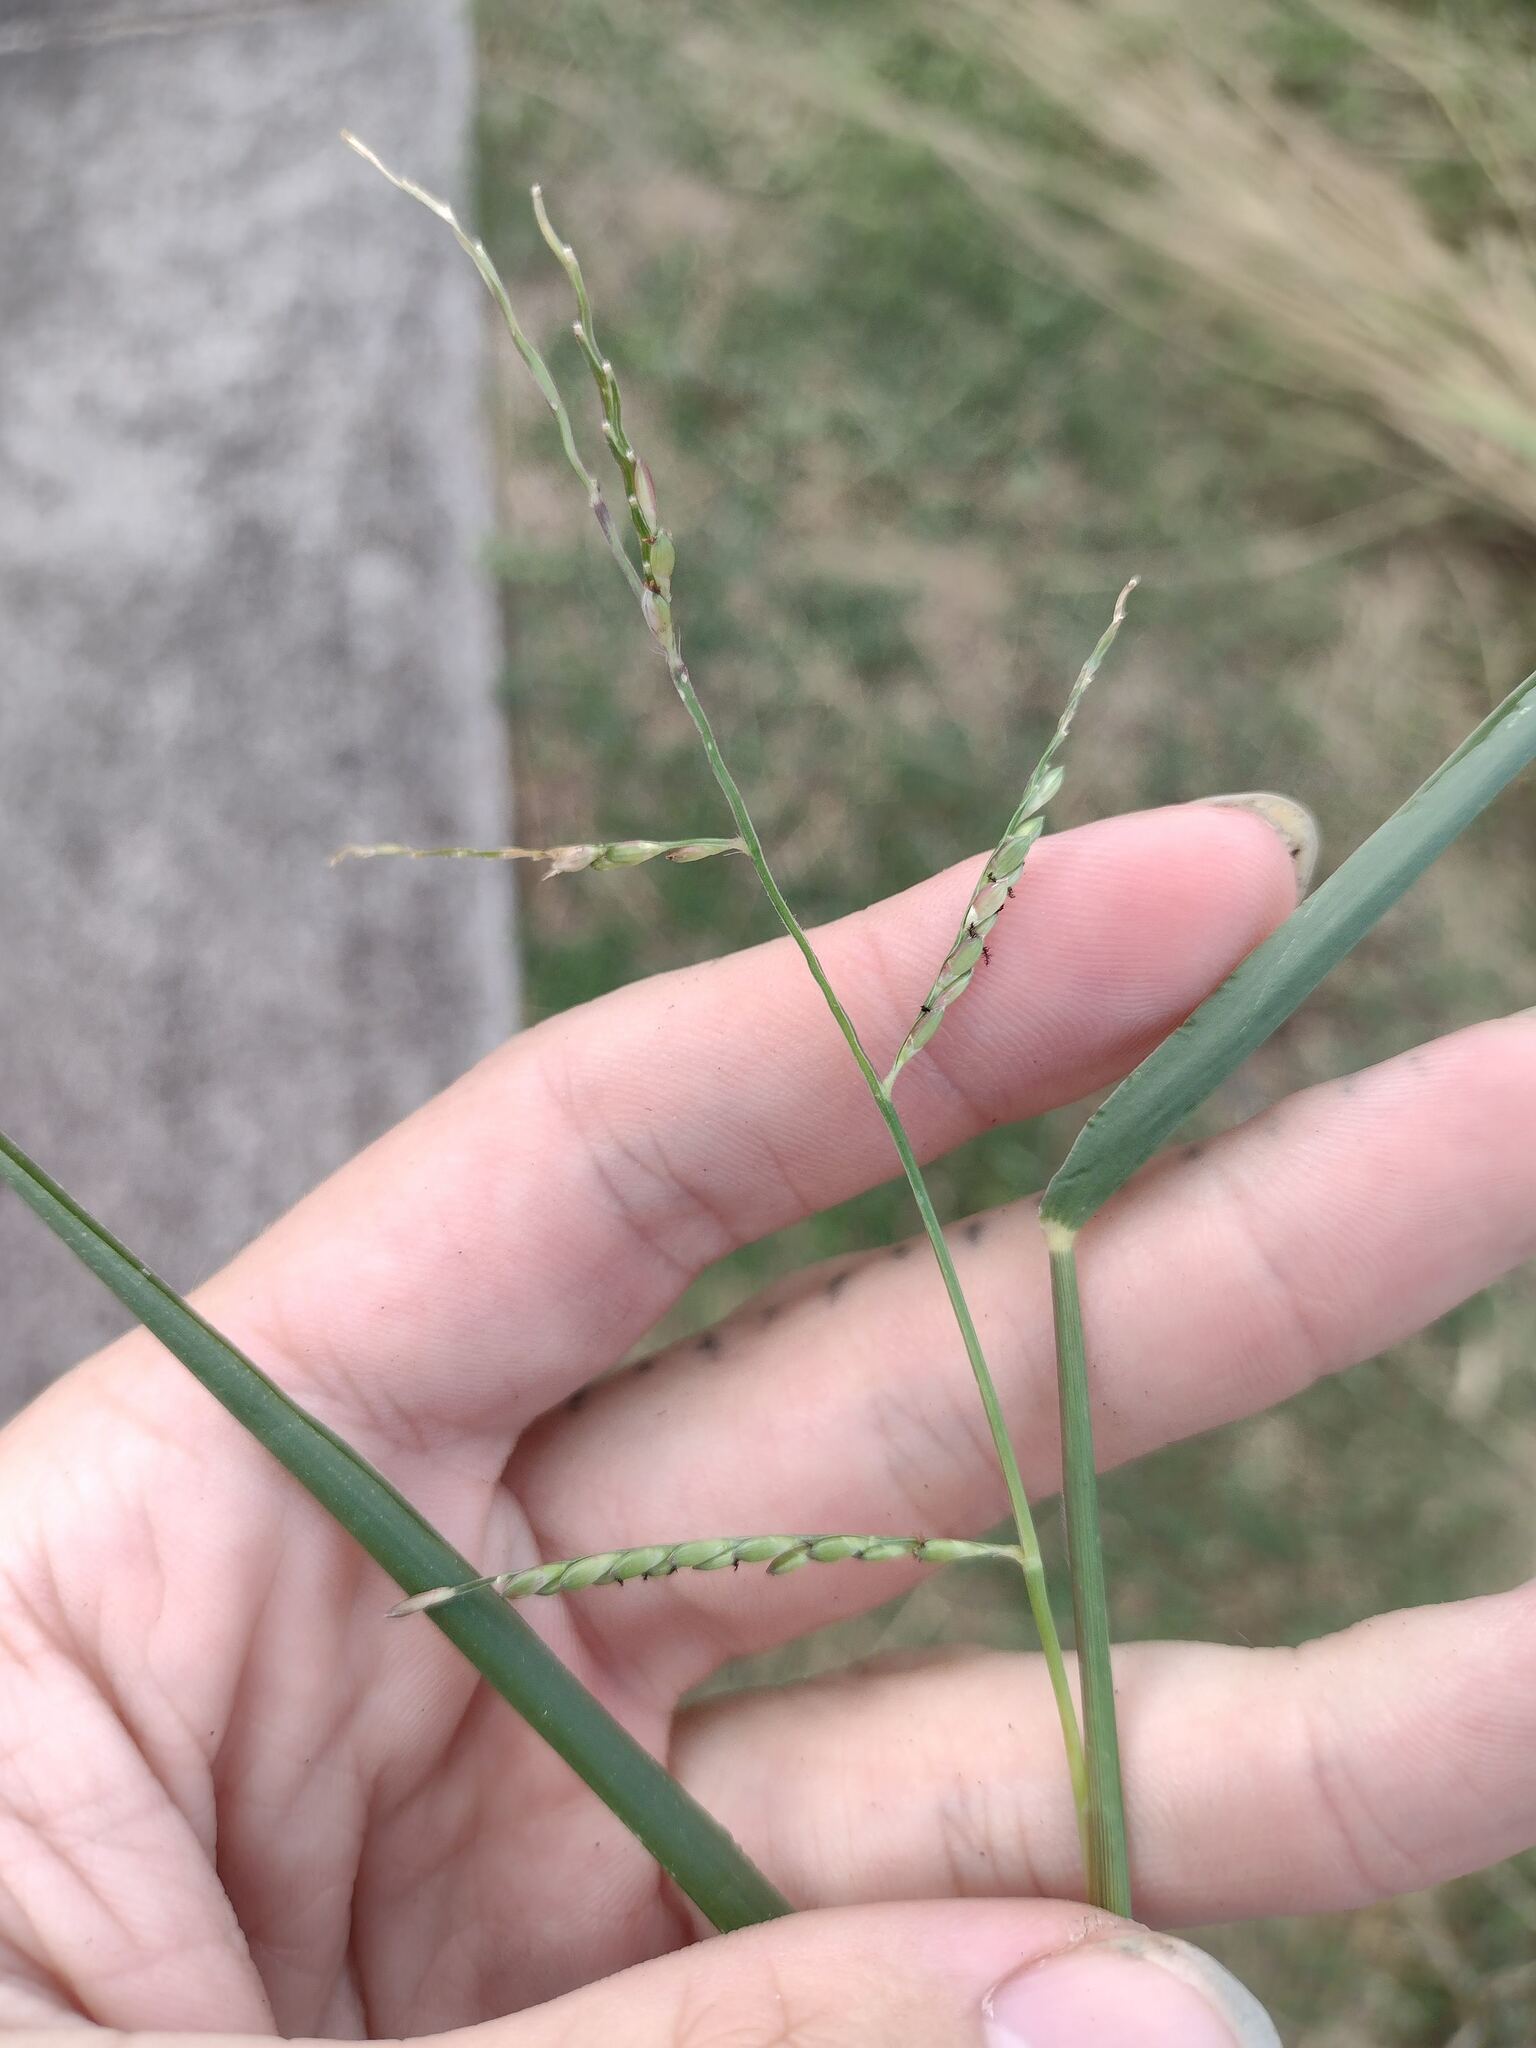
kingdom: Plantae
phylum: Tracheophyta
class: Liliopsida
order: Poales
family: Poaceae
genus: Urochloa
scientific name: Urochloa distachyos
